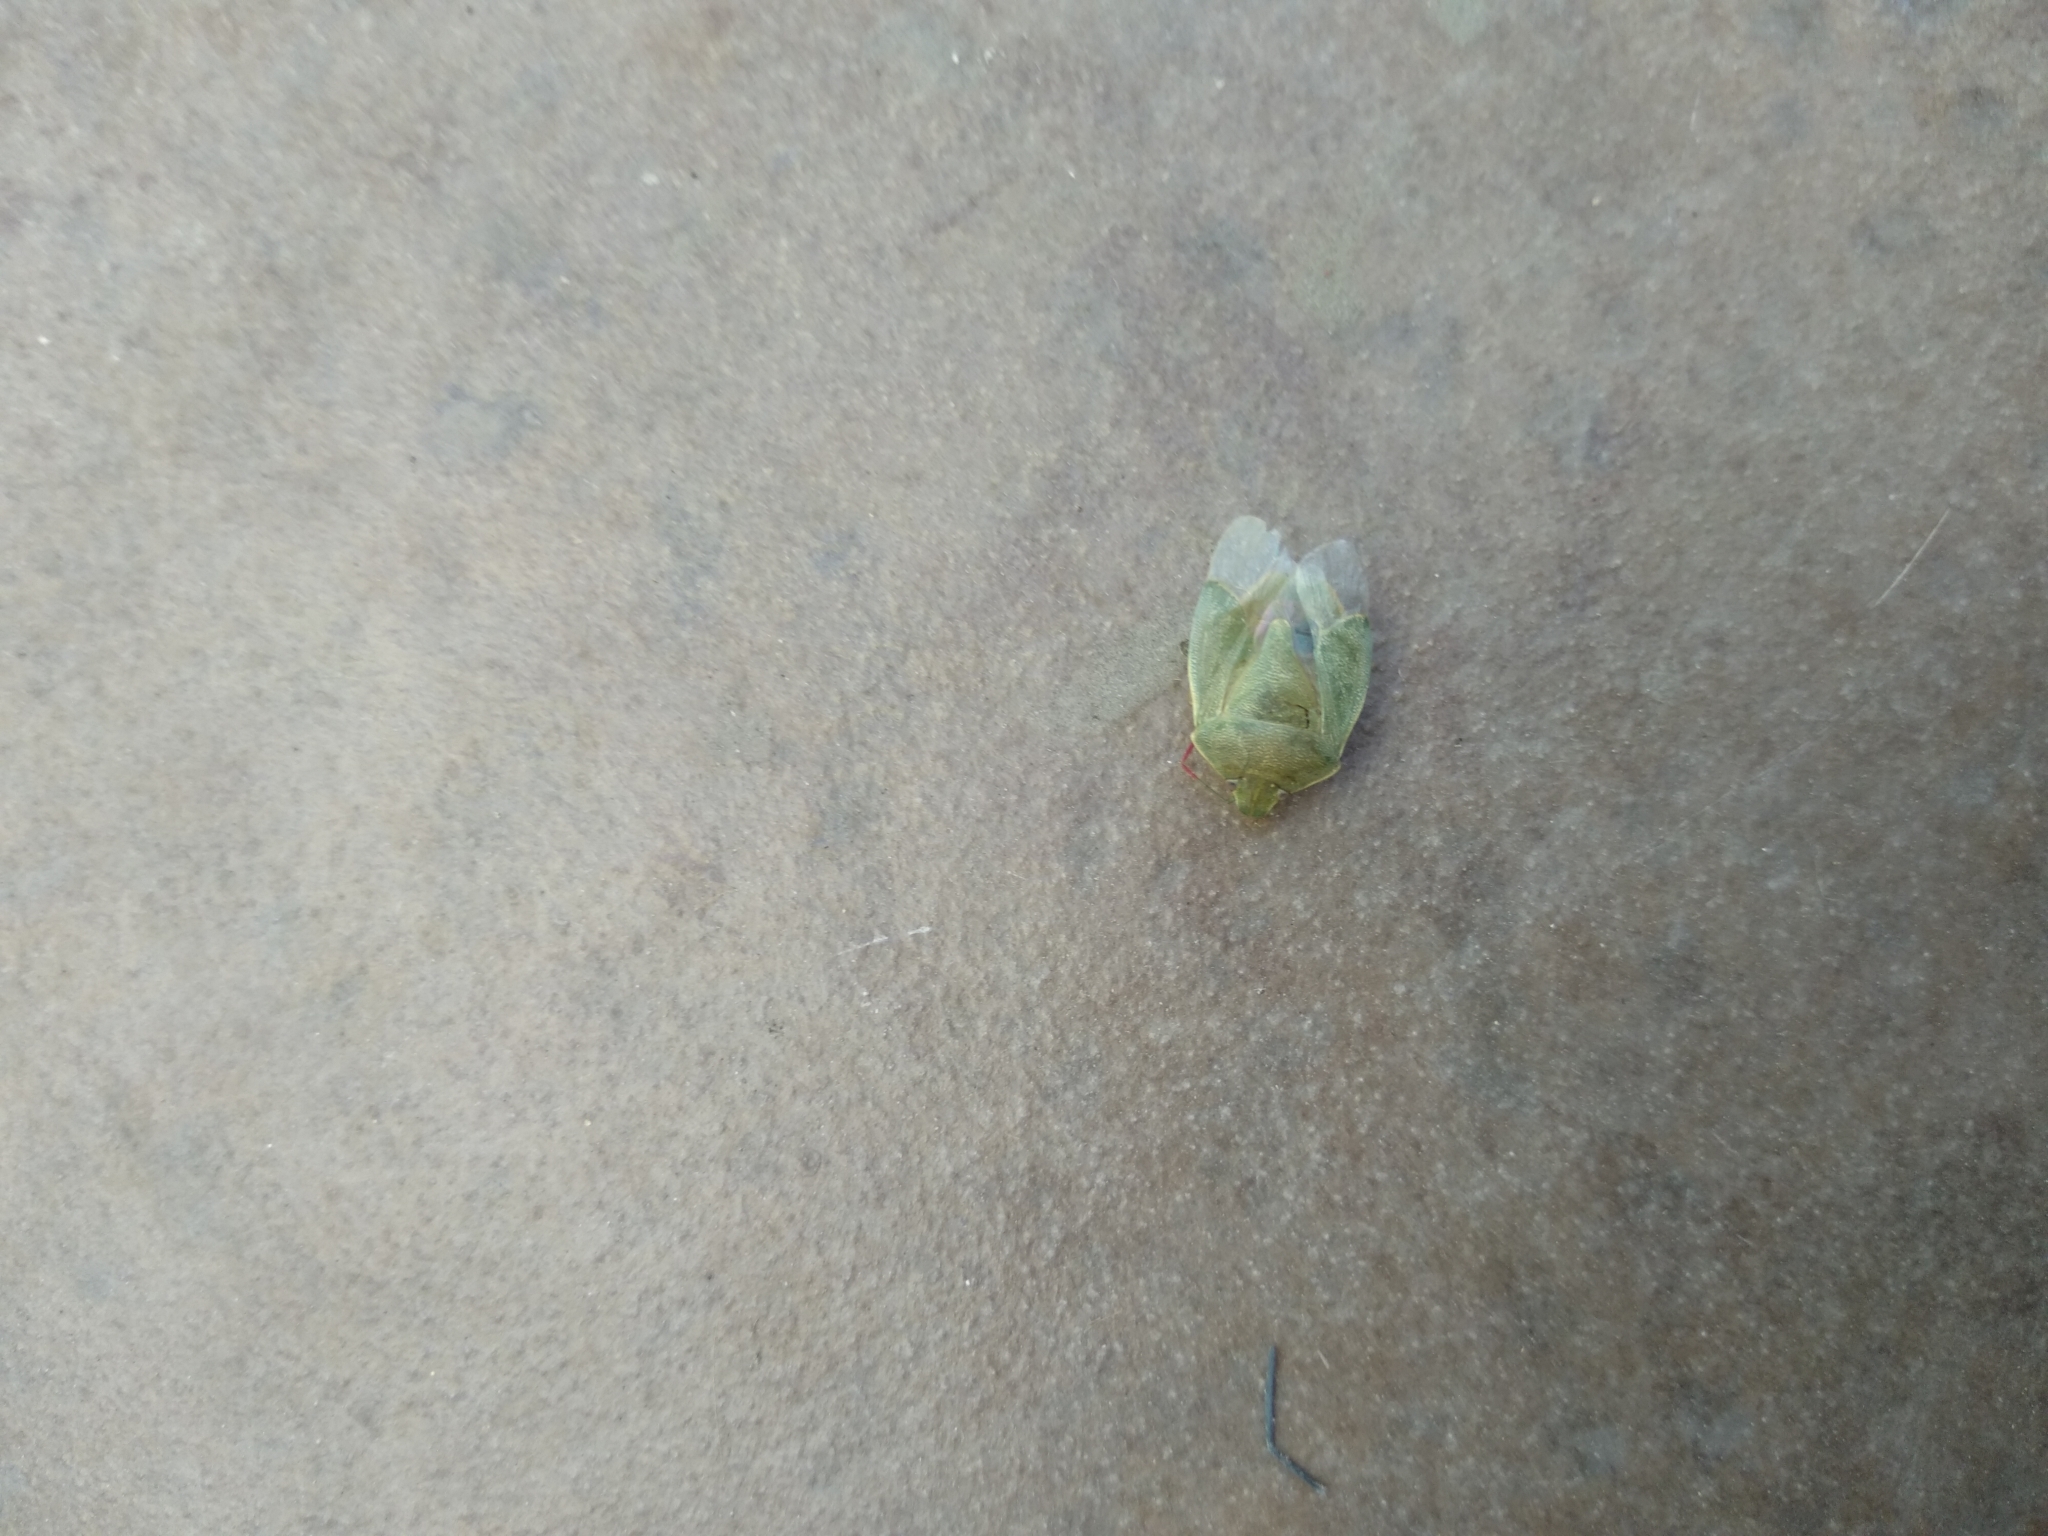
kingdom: Animalia
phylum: Arthropoda
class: Insecta
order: Hemiptera
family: Pentatomidae
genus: Piezodorus
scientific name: Piezodorus lituratus
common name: Stink bug
